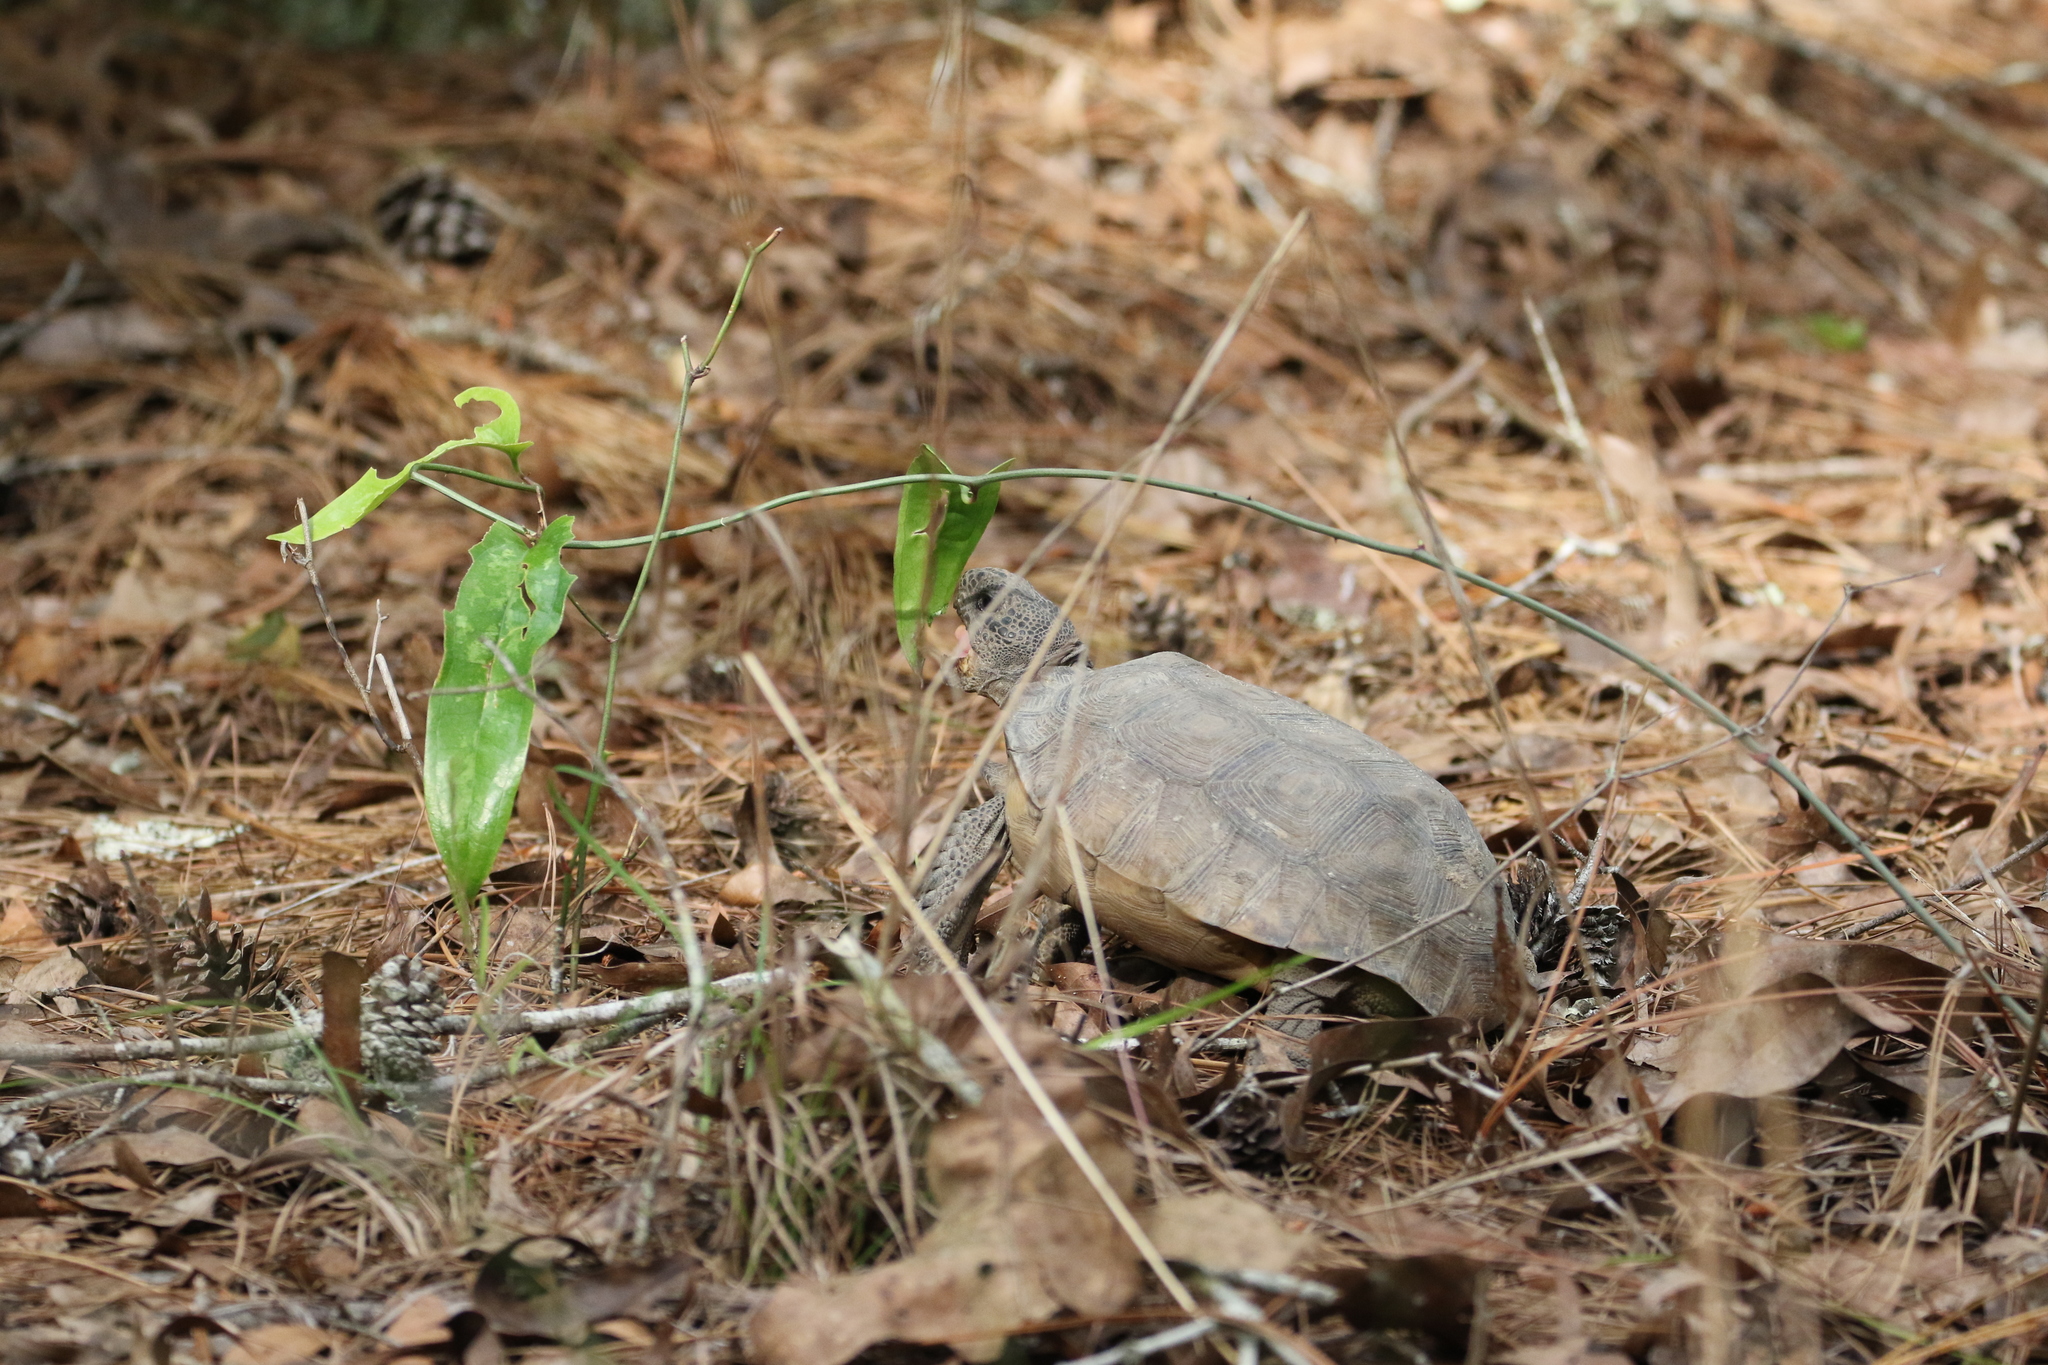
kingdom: Plantae
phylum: Tracheophyta
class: Liliopsida
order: Liliales
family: Smilacaceae
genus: Smilax
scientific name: Smilax auriculata
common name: Wild bamboo
